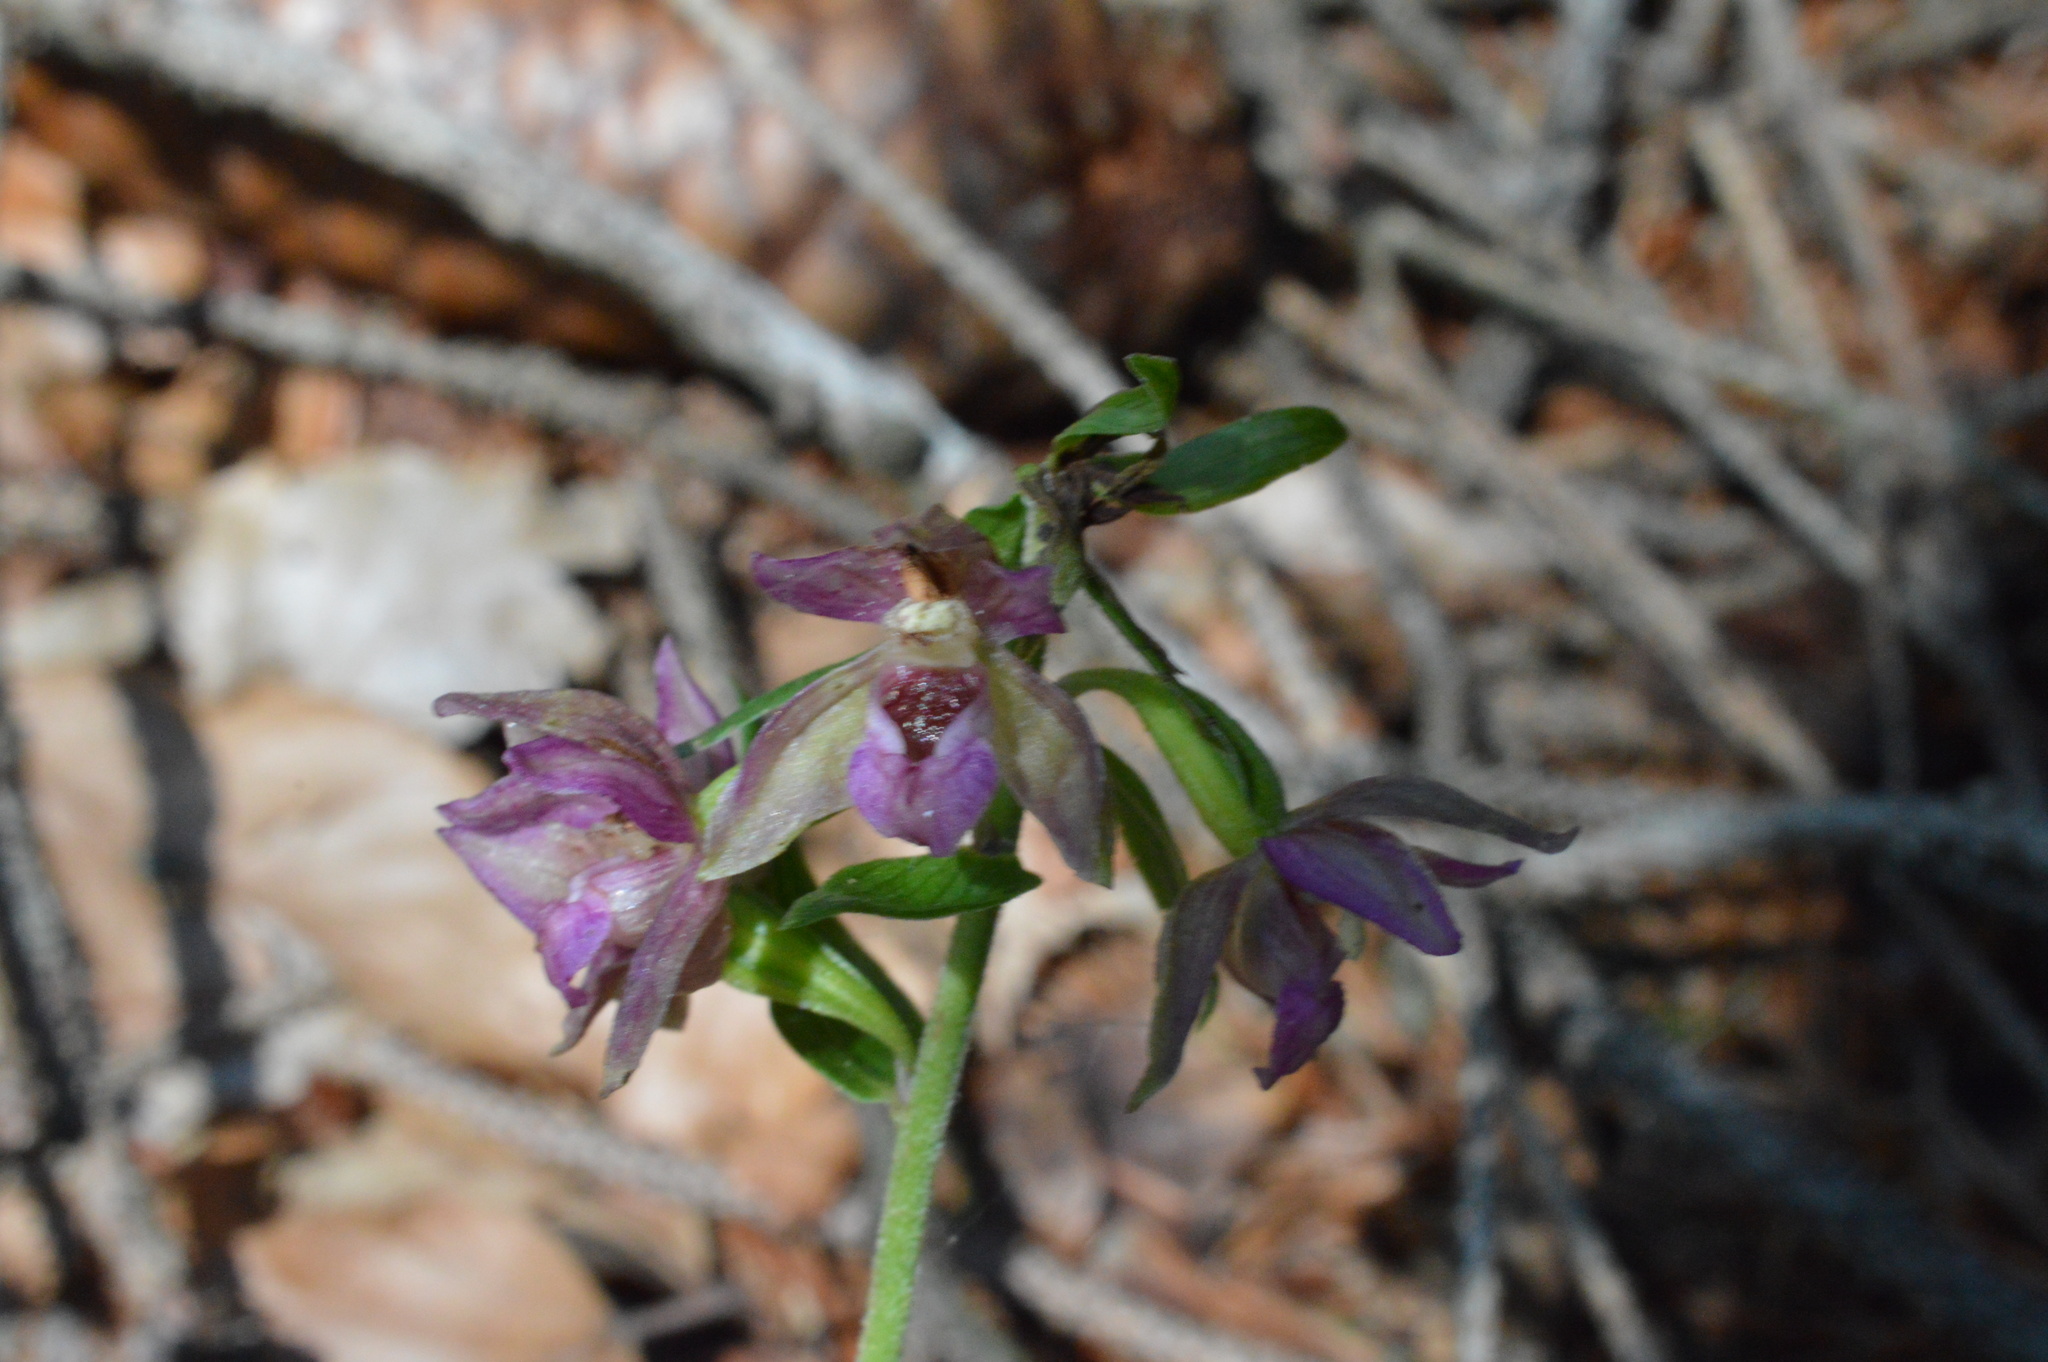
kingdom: Plantae
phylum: Tracheophyta
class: Liliopsida
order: Asparagales
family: Orchidaceae
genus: Epipactis
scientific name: Epipactis helleborine
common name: Broad-leaved helleborine
